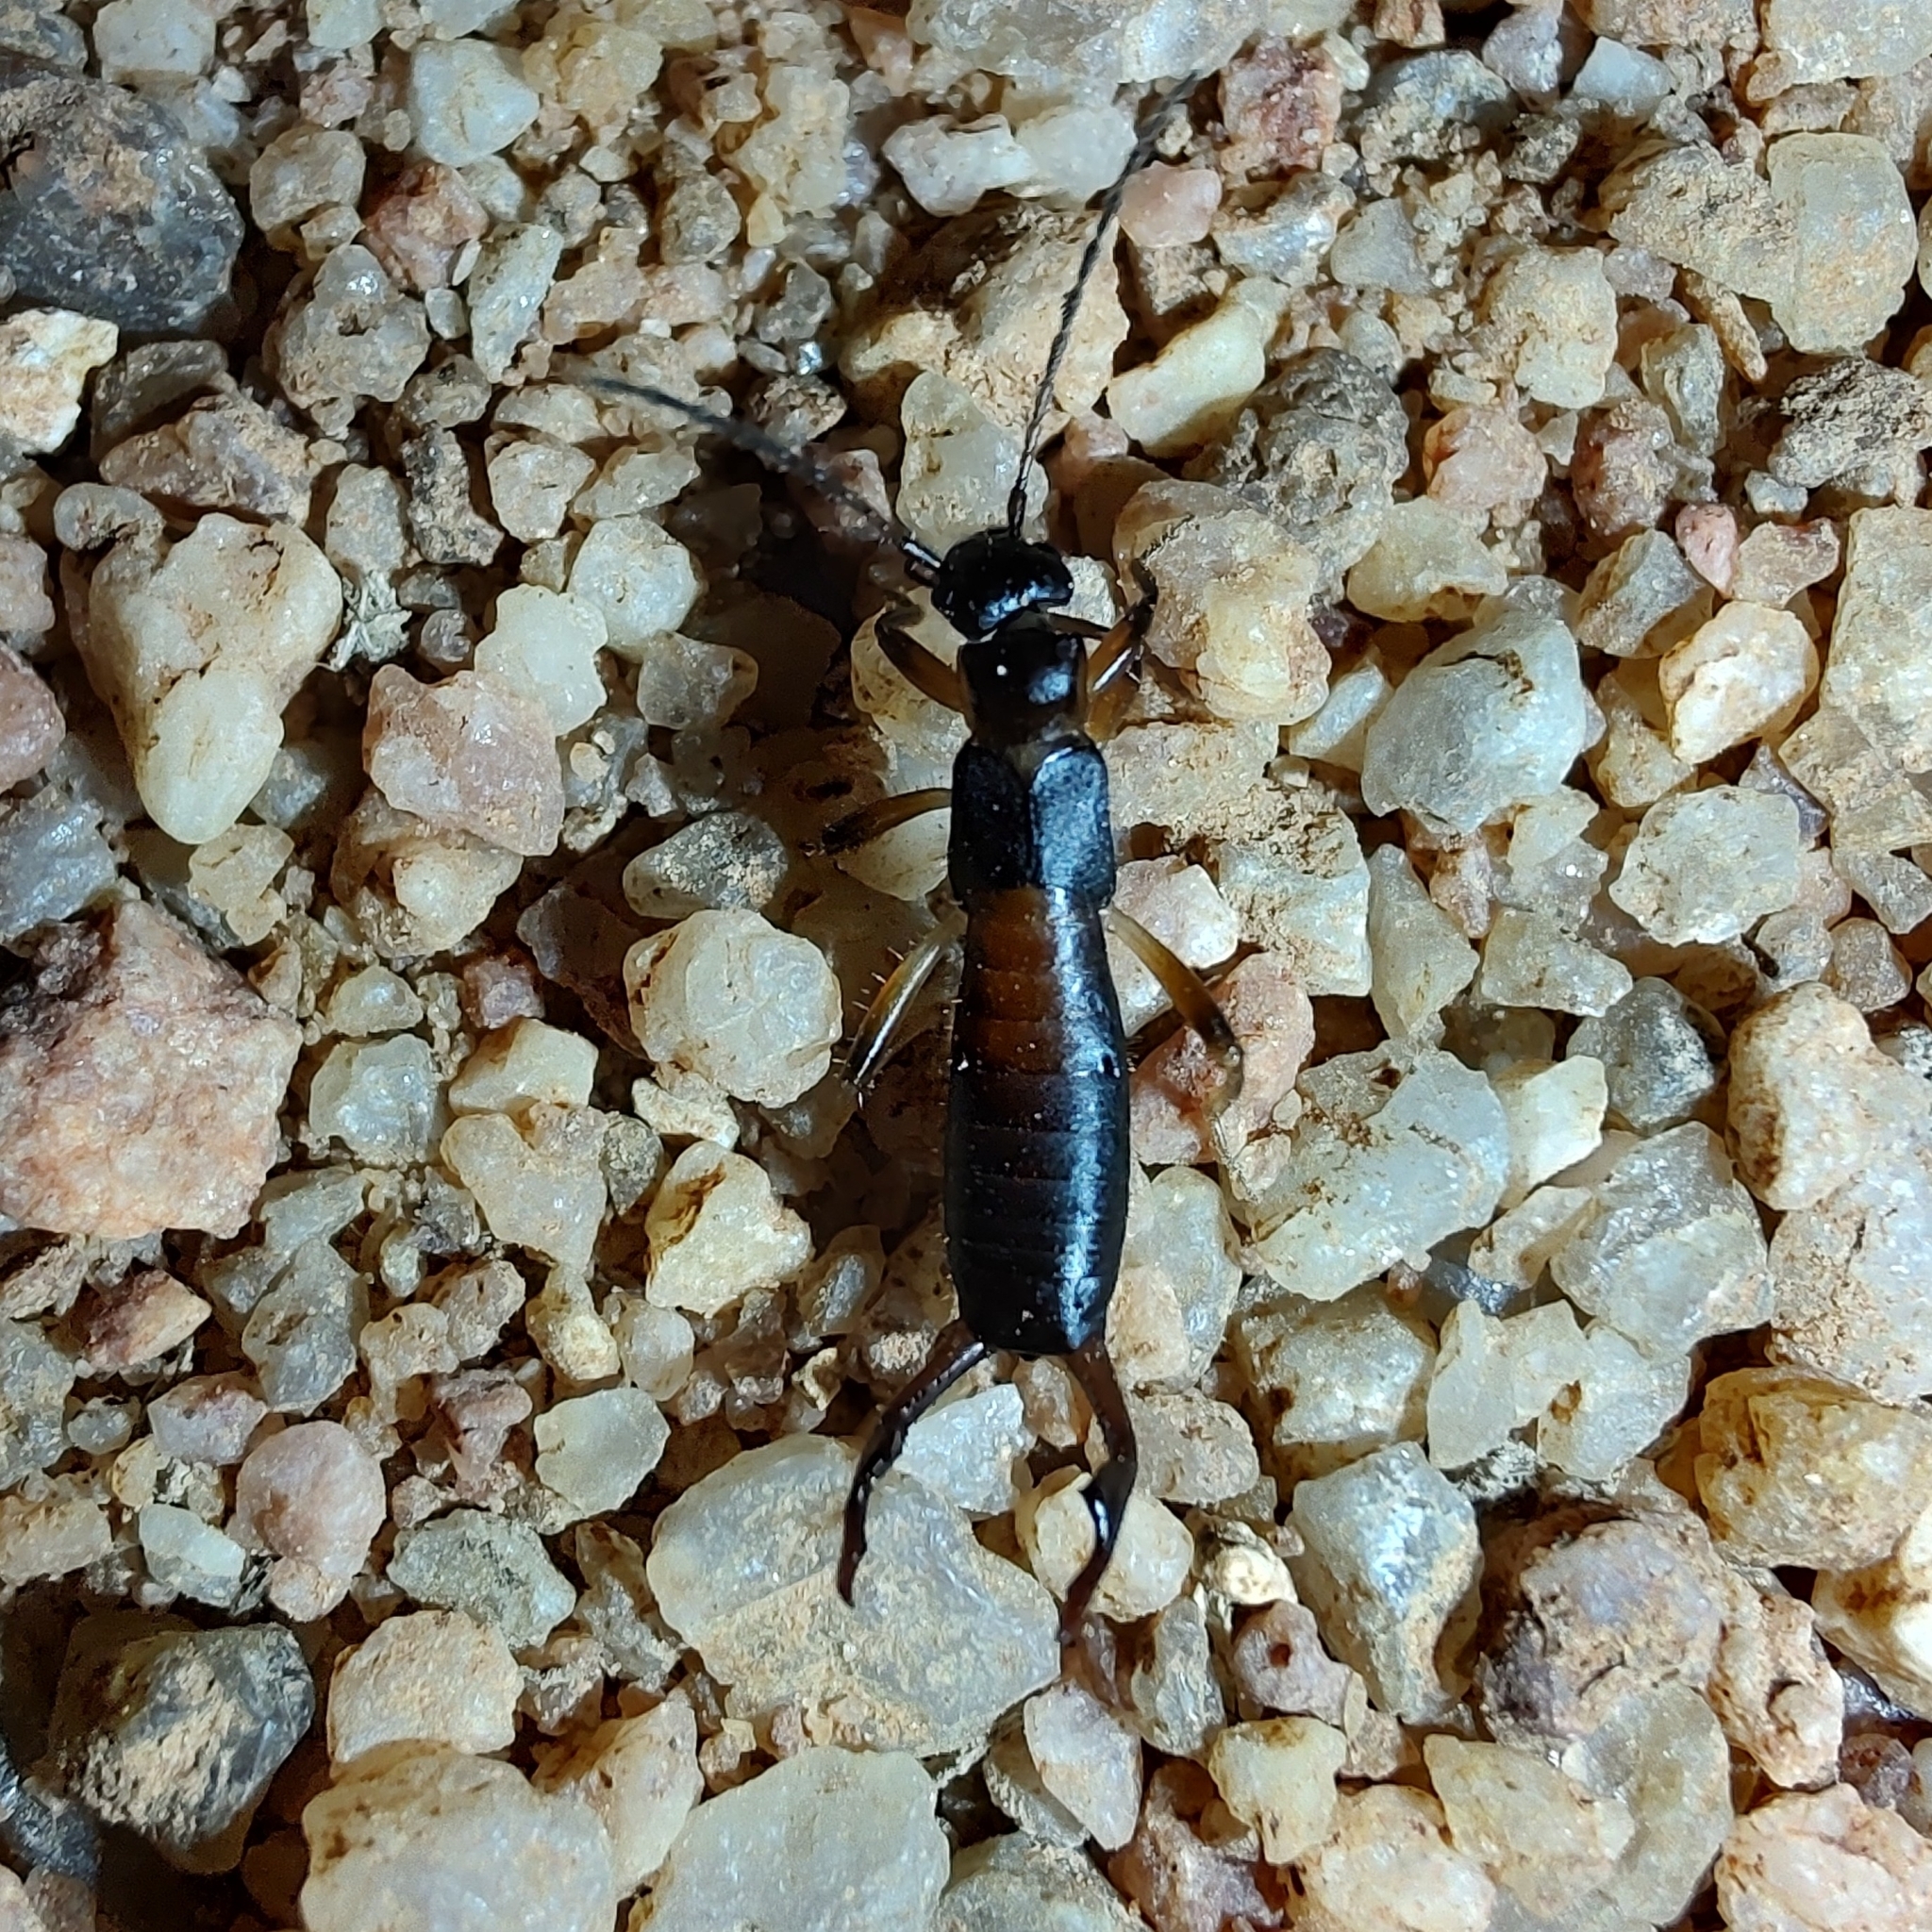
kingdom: Animalia
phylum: Arthropoda
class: Insecta
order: Dermaptera
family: Forficulidae
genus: Cosmiella
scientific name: Cosmiella brasiliensis
